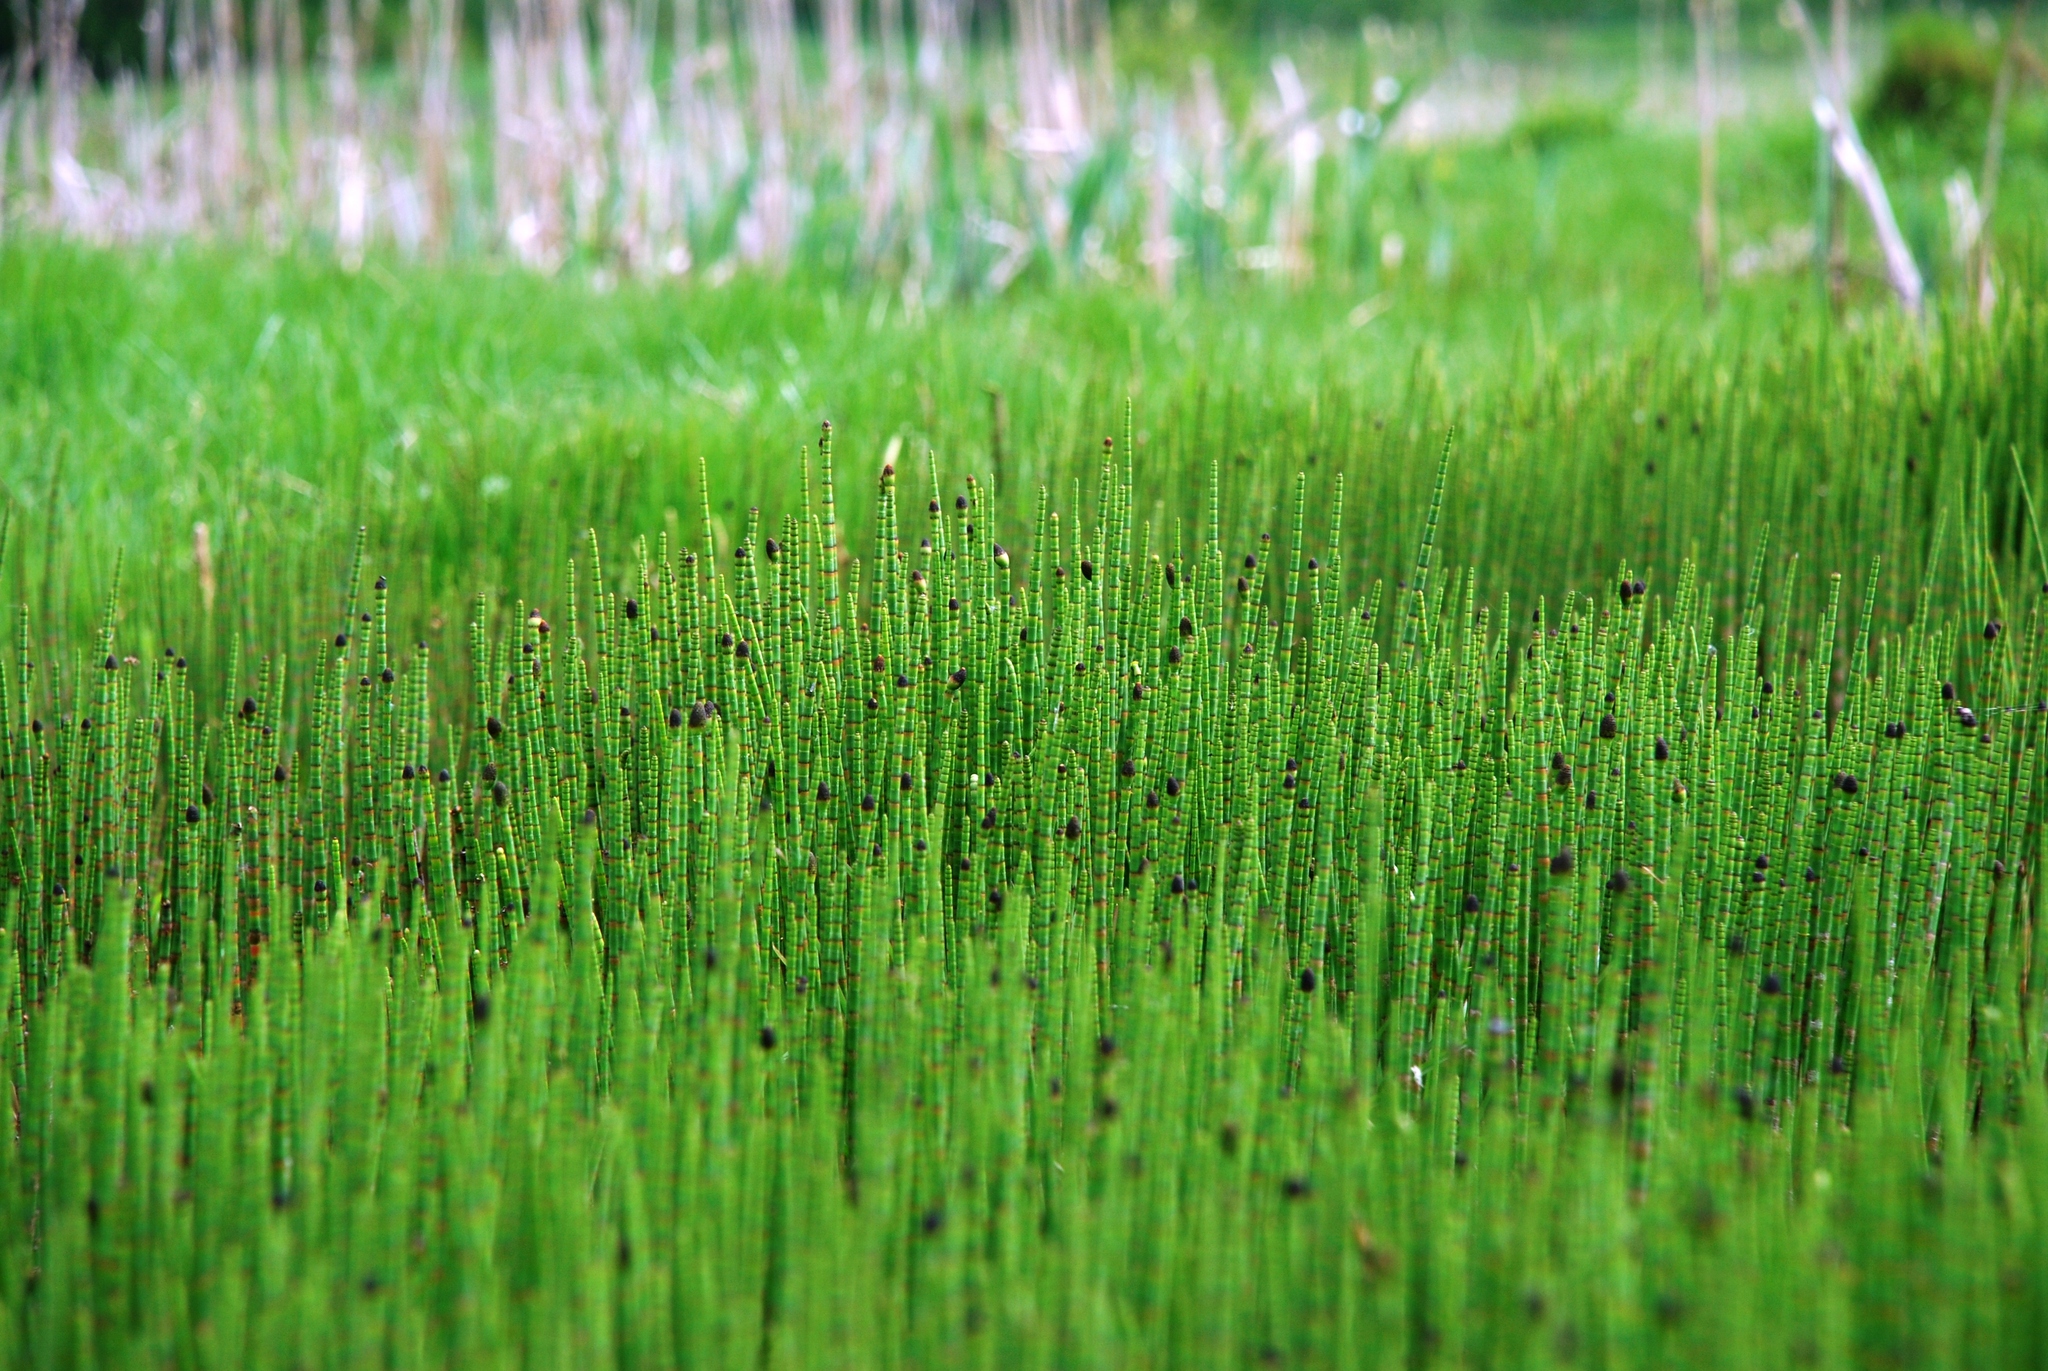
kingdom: Plantae
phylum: Tracheophyta
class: Polypodiopsida
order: Equisetales
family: Equisetaceae
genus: Equisetum
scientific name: Equisetum fluviatile
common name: Water horsetail
